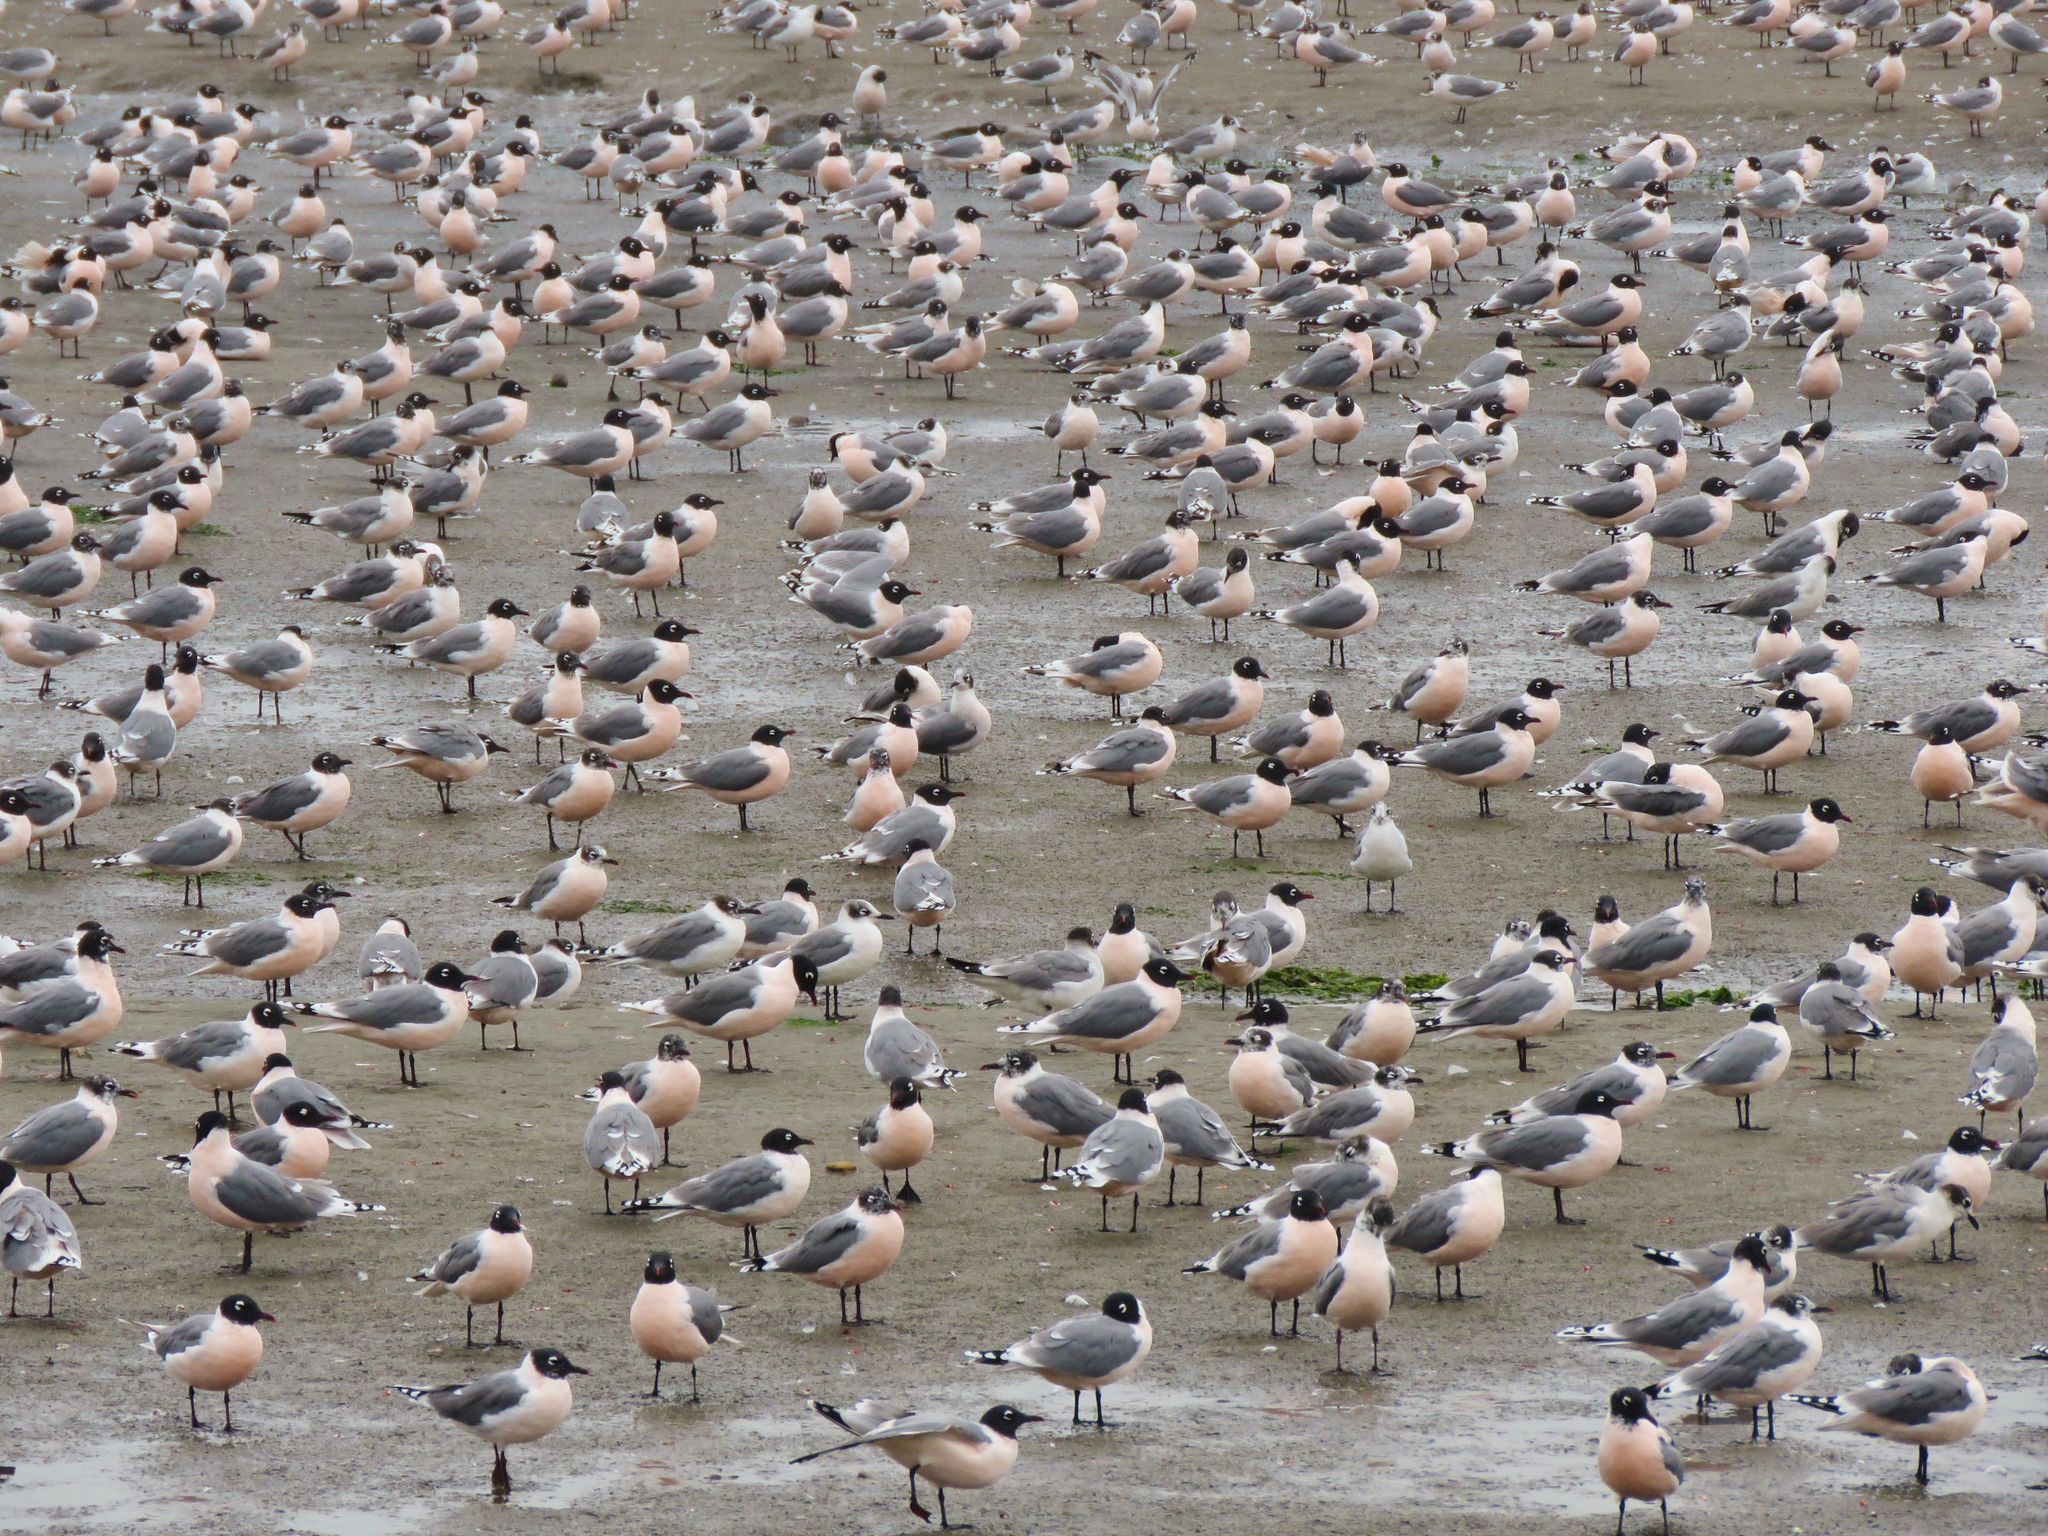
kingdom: Animalia
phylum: Chordata
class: Aves
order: Charadriiformes
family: Laridae
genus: Leucophaeus
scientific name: Leucophaeus pipixcan
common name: Franklin's gull
